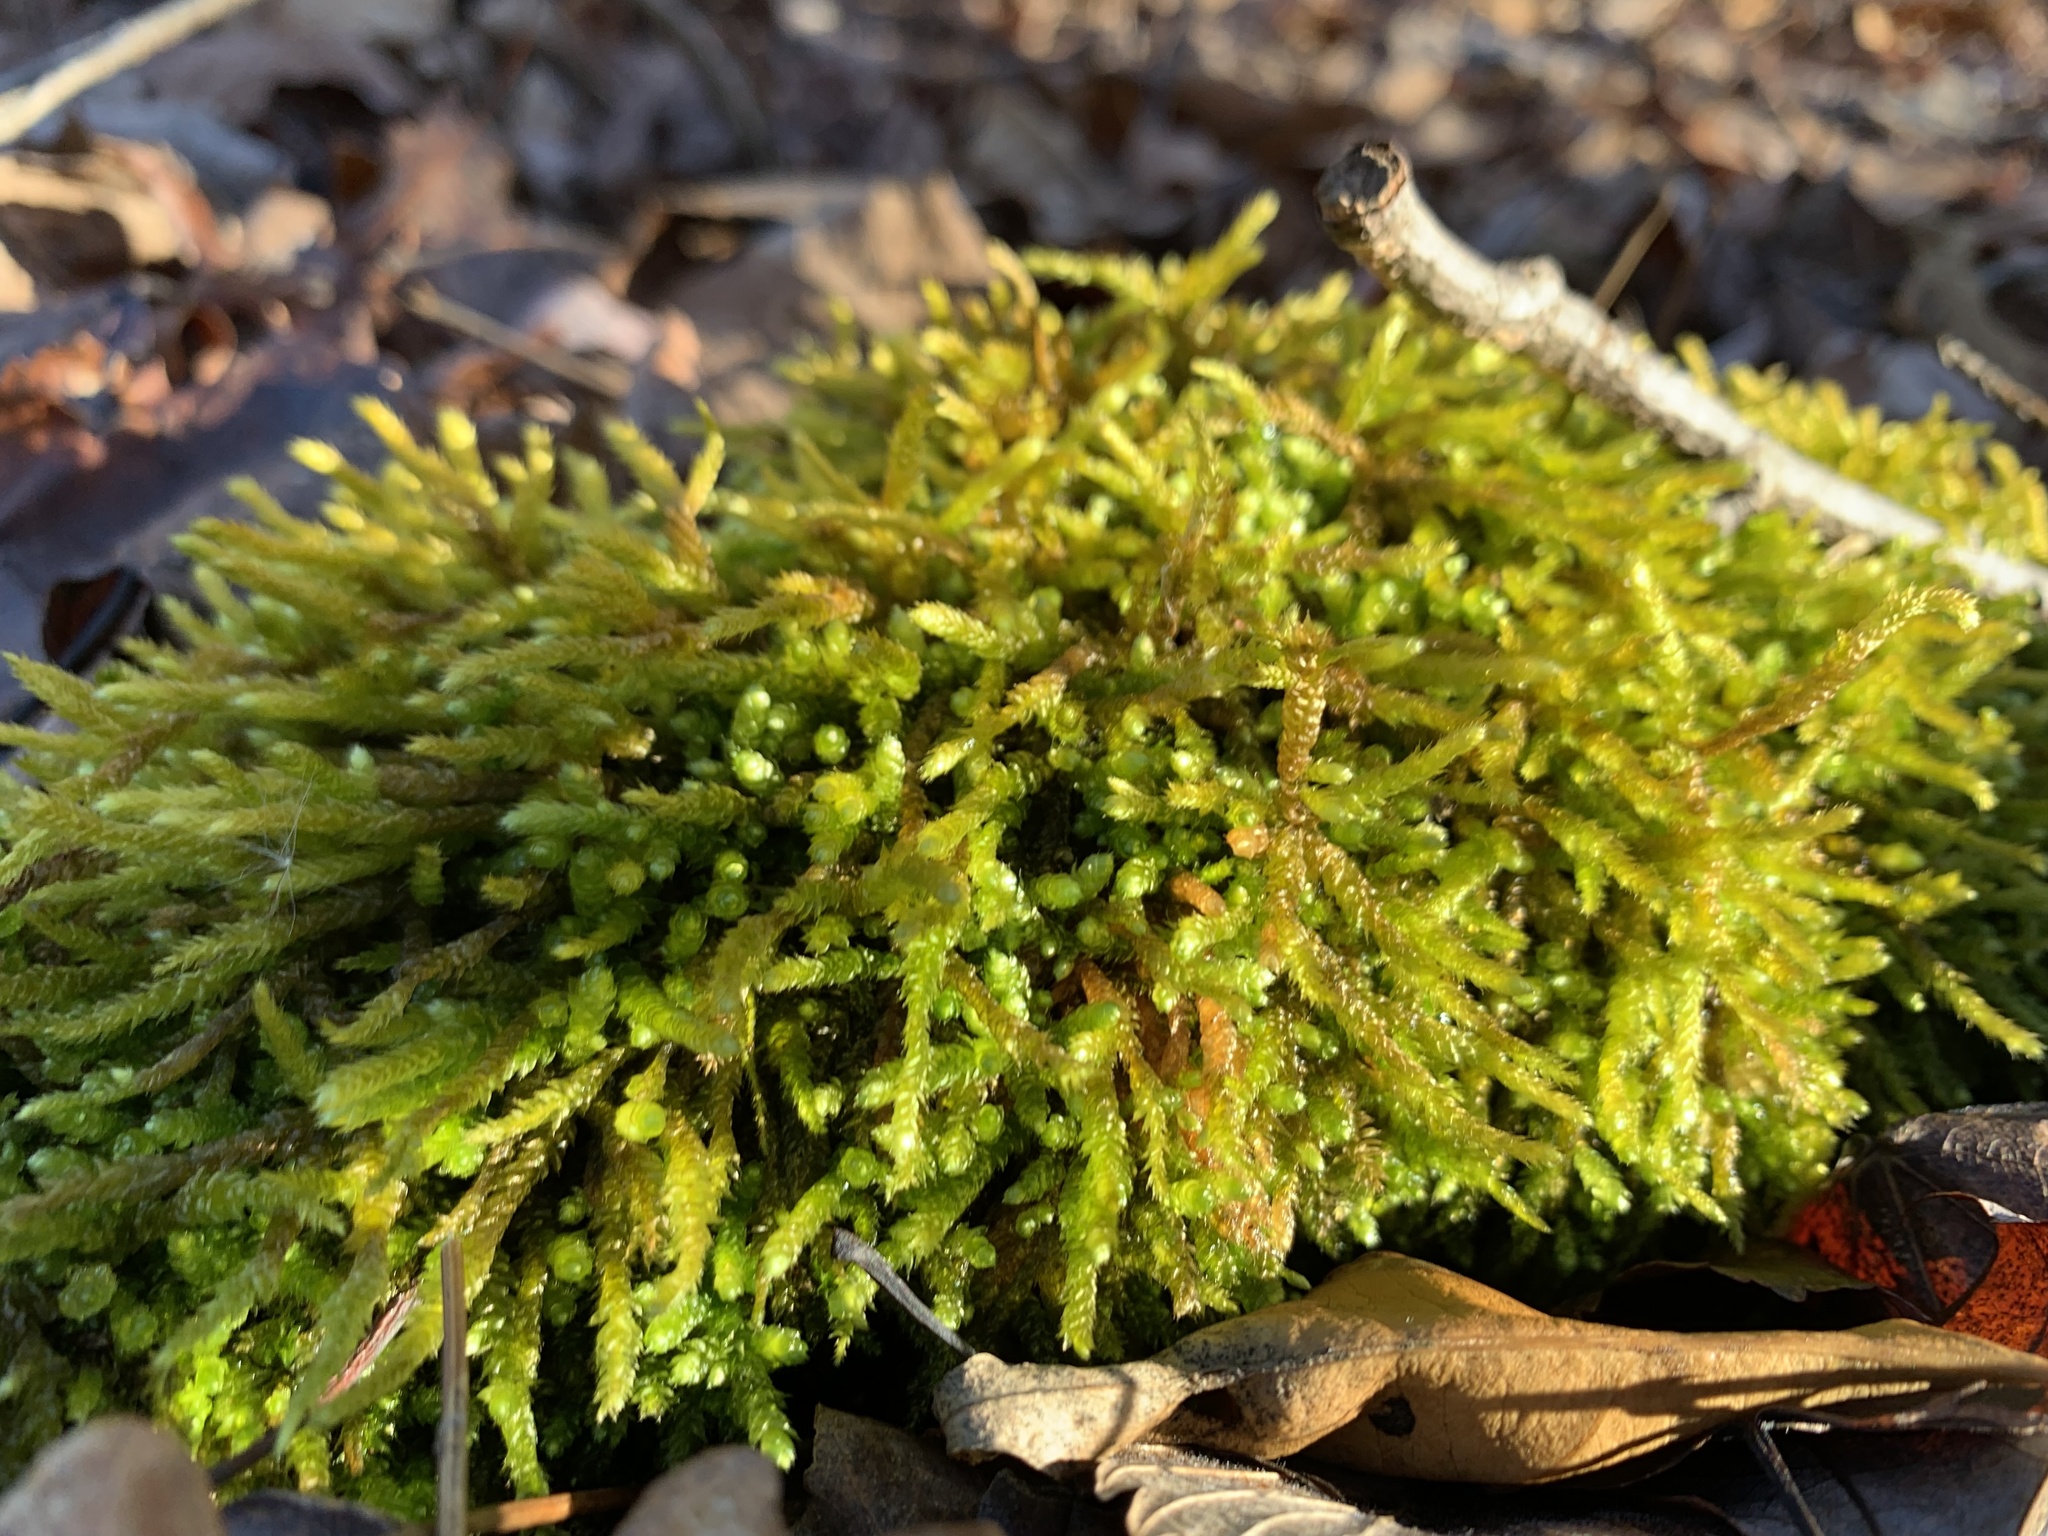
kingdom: Plantae
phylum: Bryophyta
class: Bryopsida
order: Hypnales
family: Brachytheciaceae
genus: Bryoandersonia
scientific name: Bryoandersonia illecebra
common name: Spoon-leaved moss
